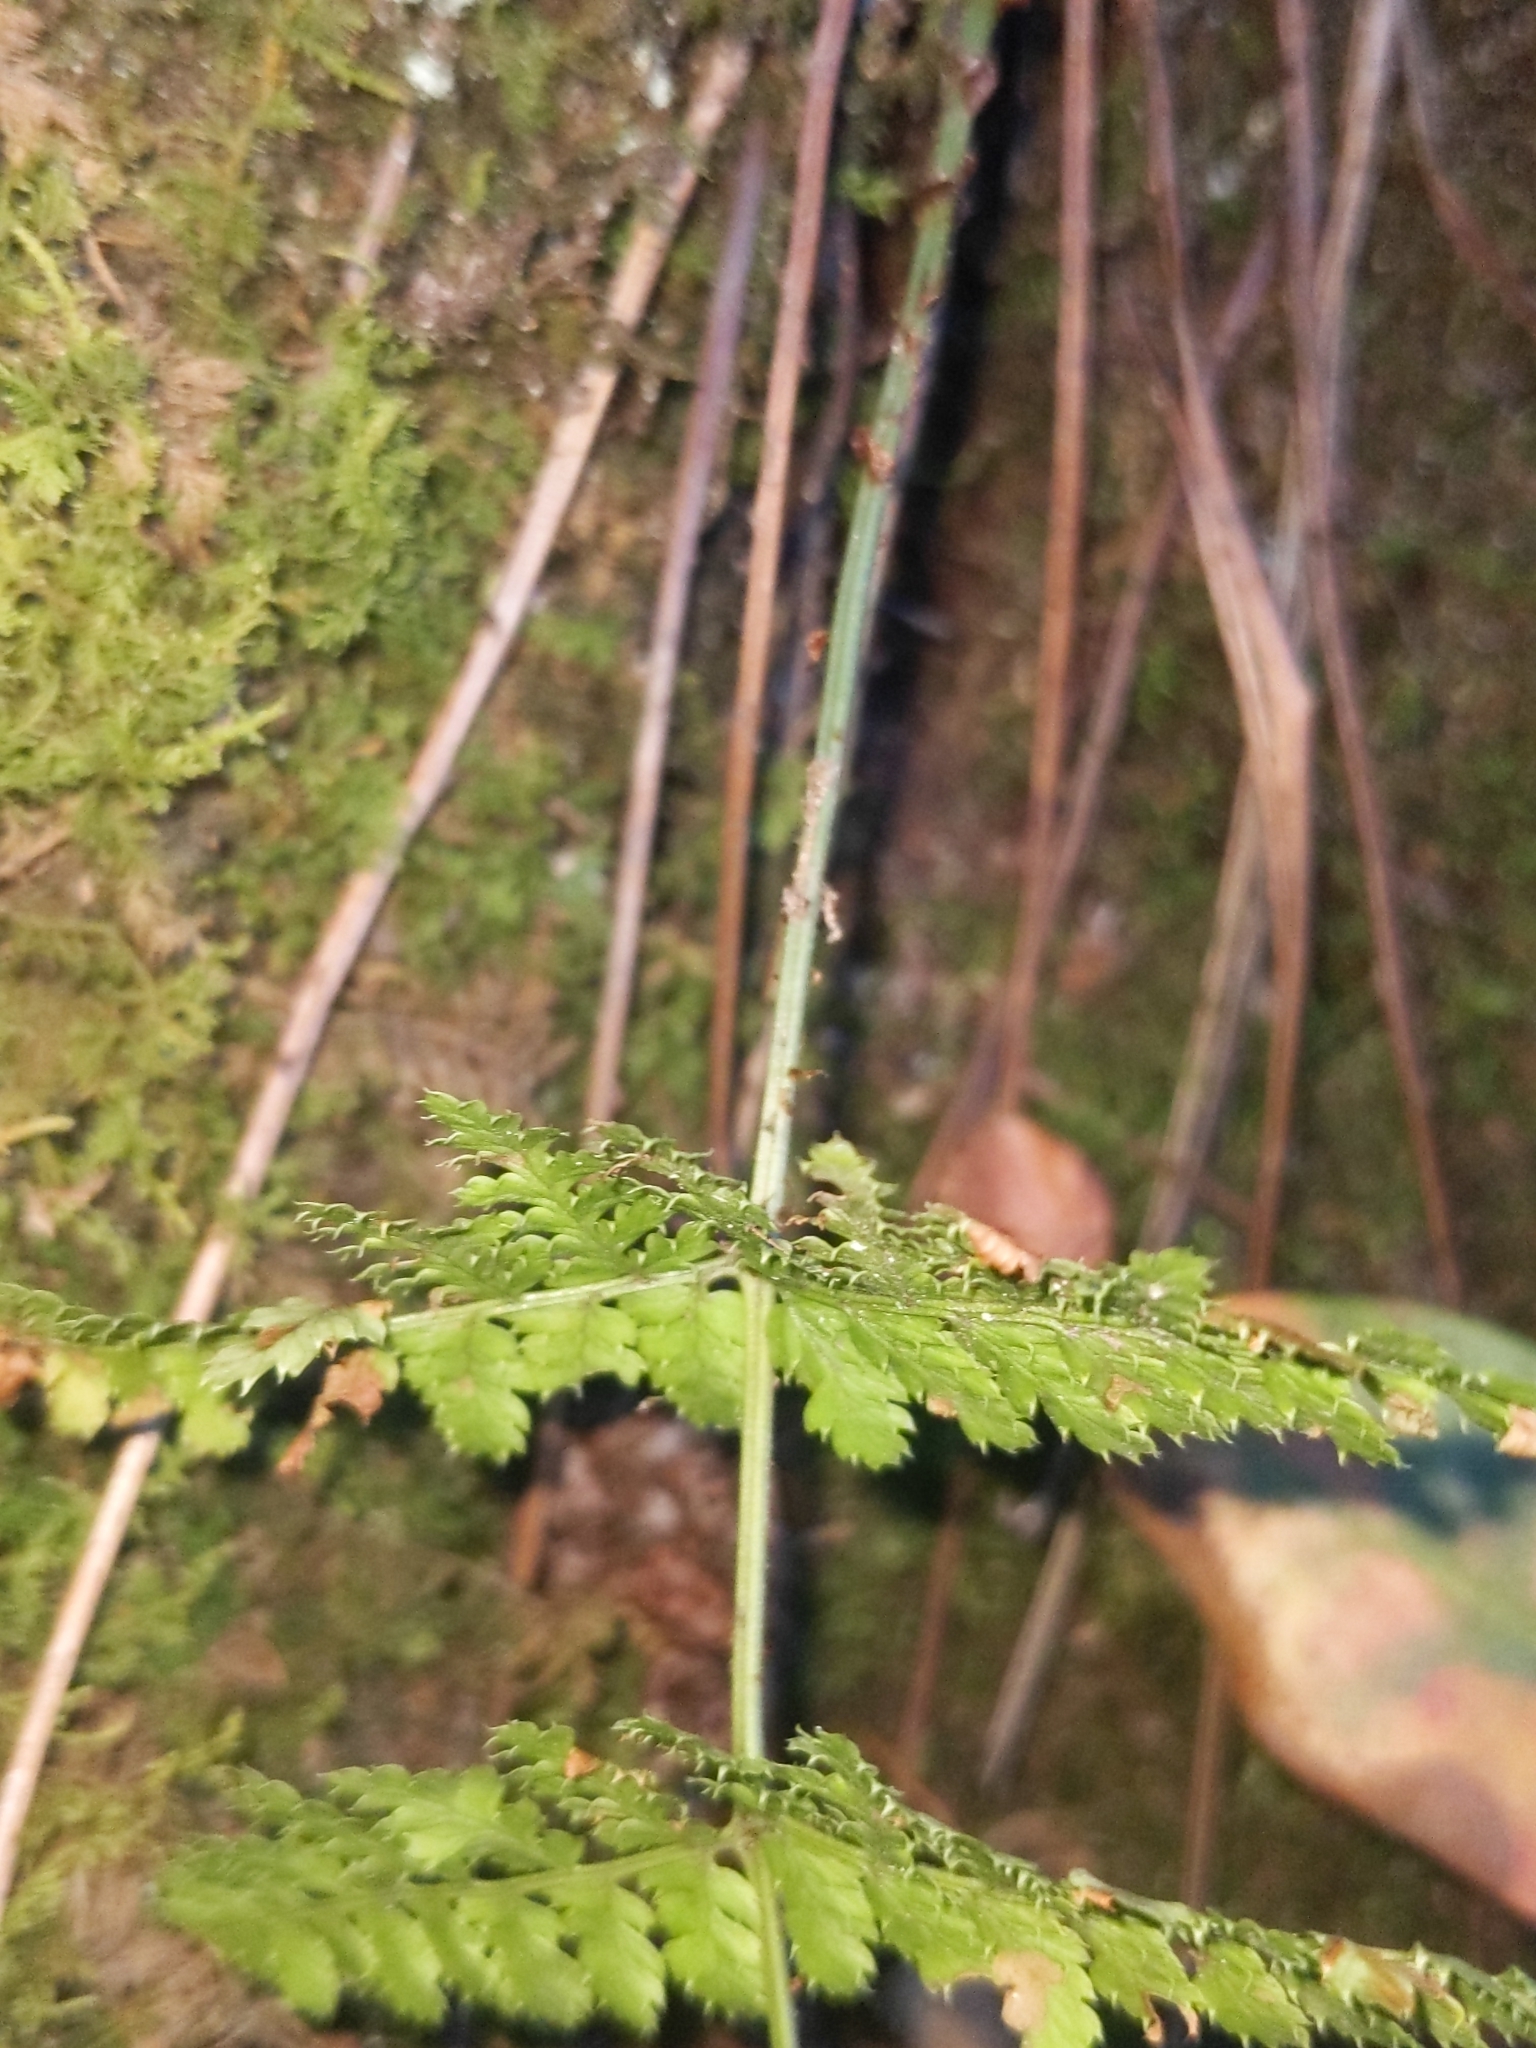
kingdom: Plantae
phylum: Tracheophyta
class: Polypodiopsida
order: Polypodiales
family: Dryopteridaceae
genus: Dryopteris
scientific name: Dryopteris intermedia
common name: Evergreen wood fern
